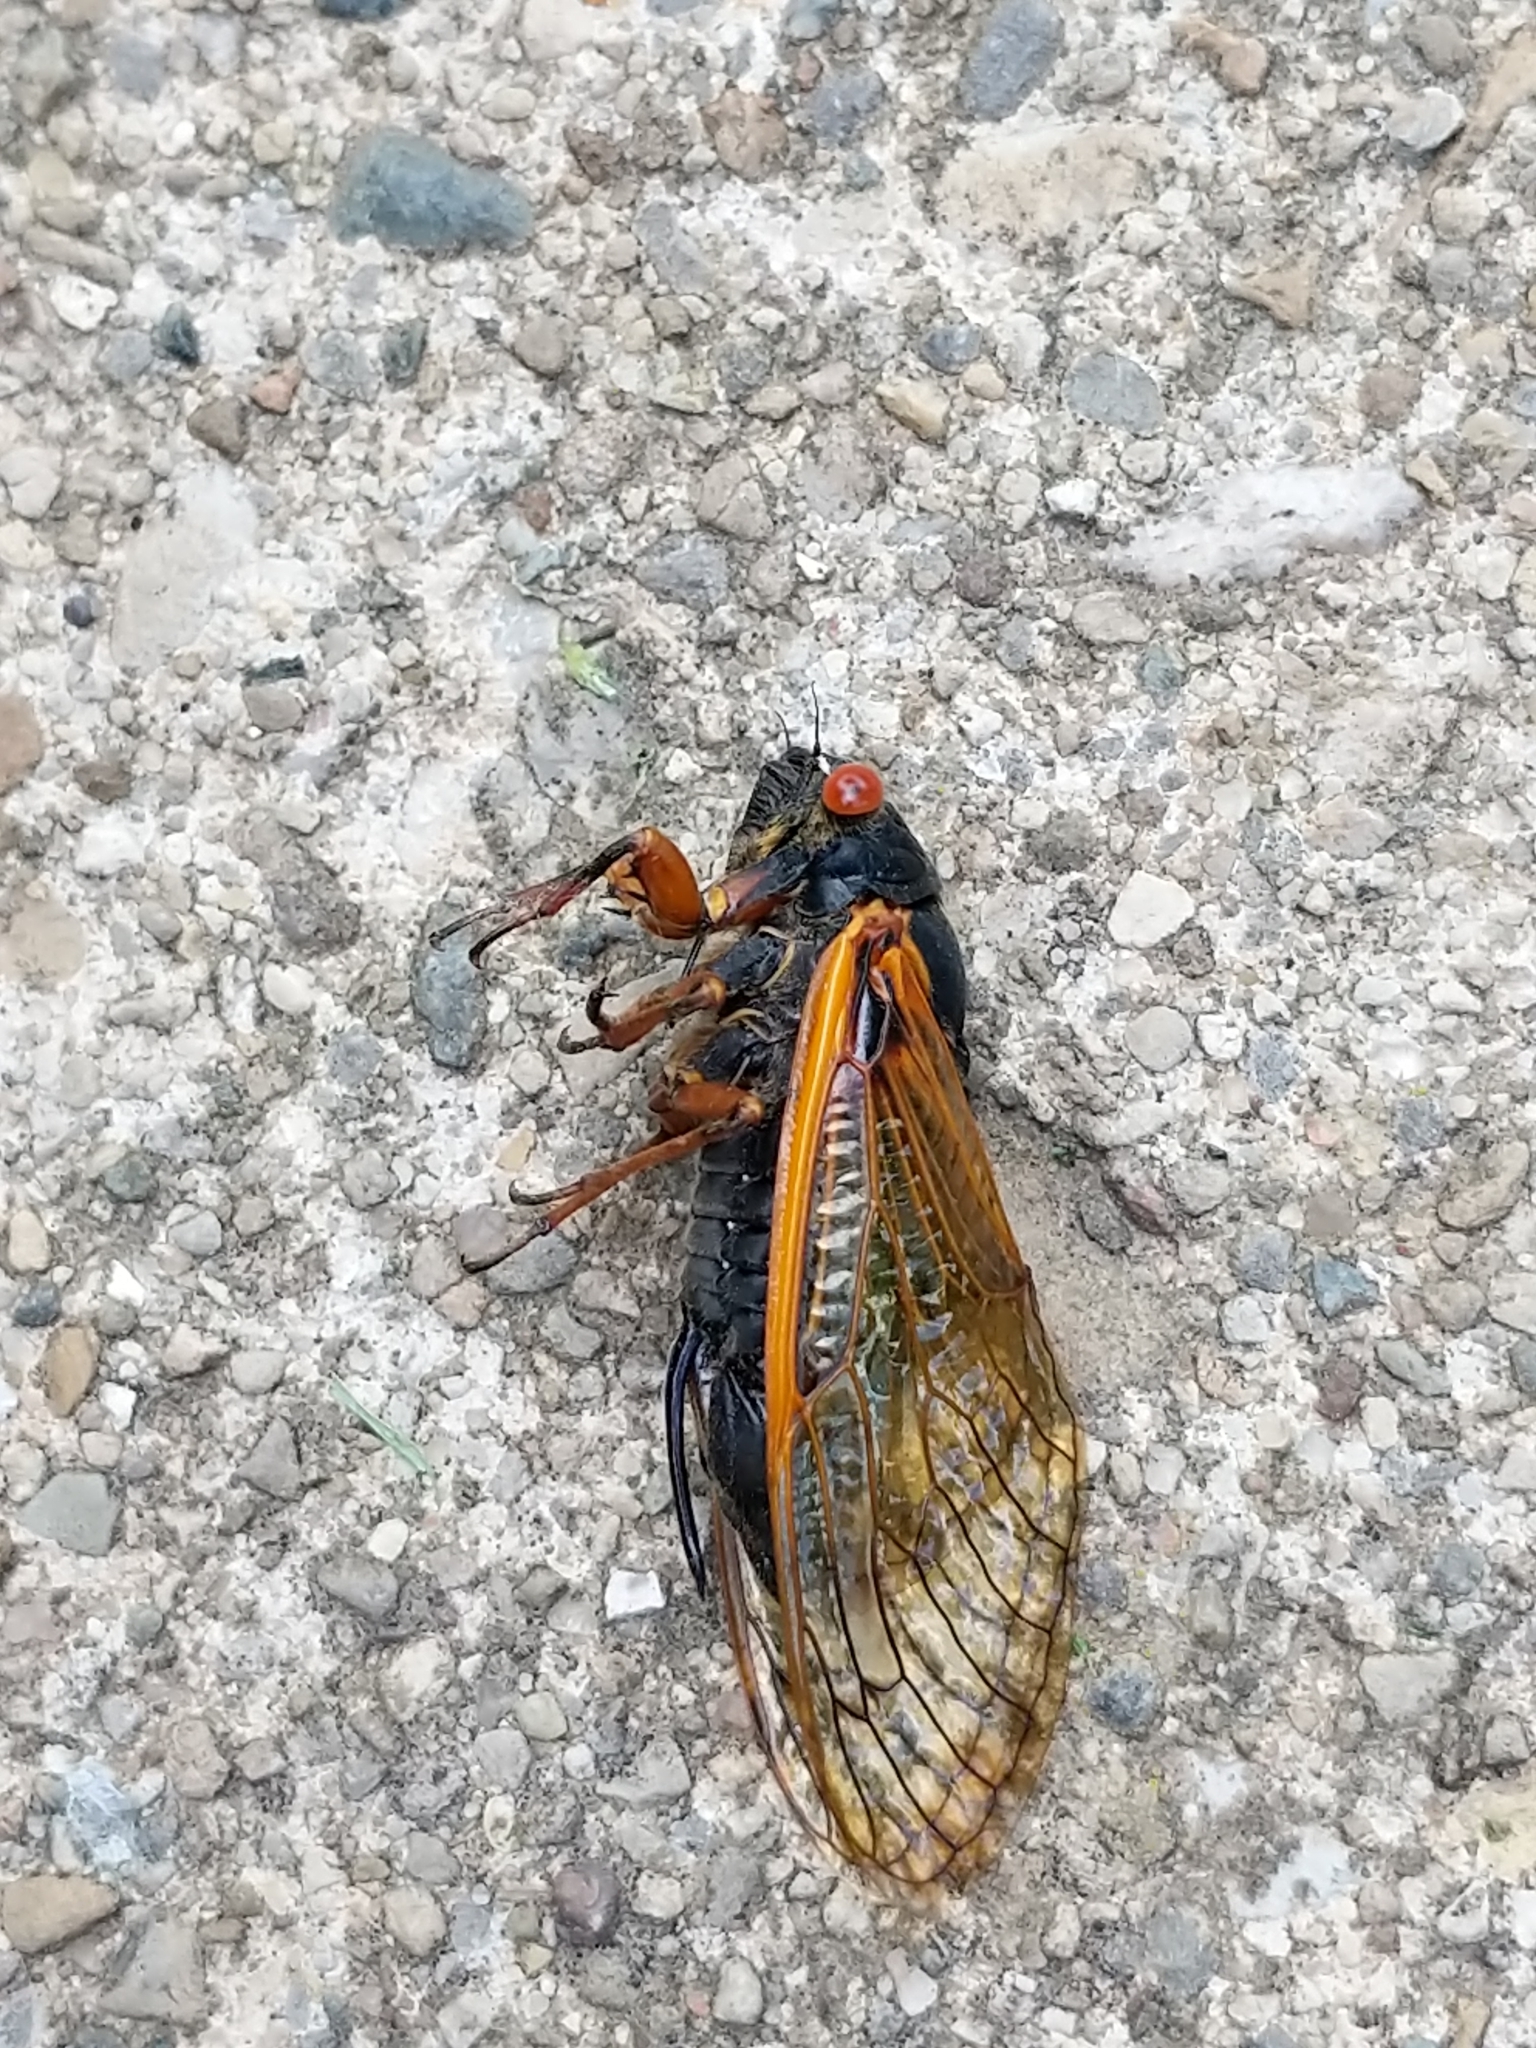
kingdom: Animalia
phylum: Arthropoda
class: Insecta
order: Hemiptera
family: Cicadidae
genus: Magicicada
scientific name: Magicicada cassini
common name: Cassin's 17-year cicada
